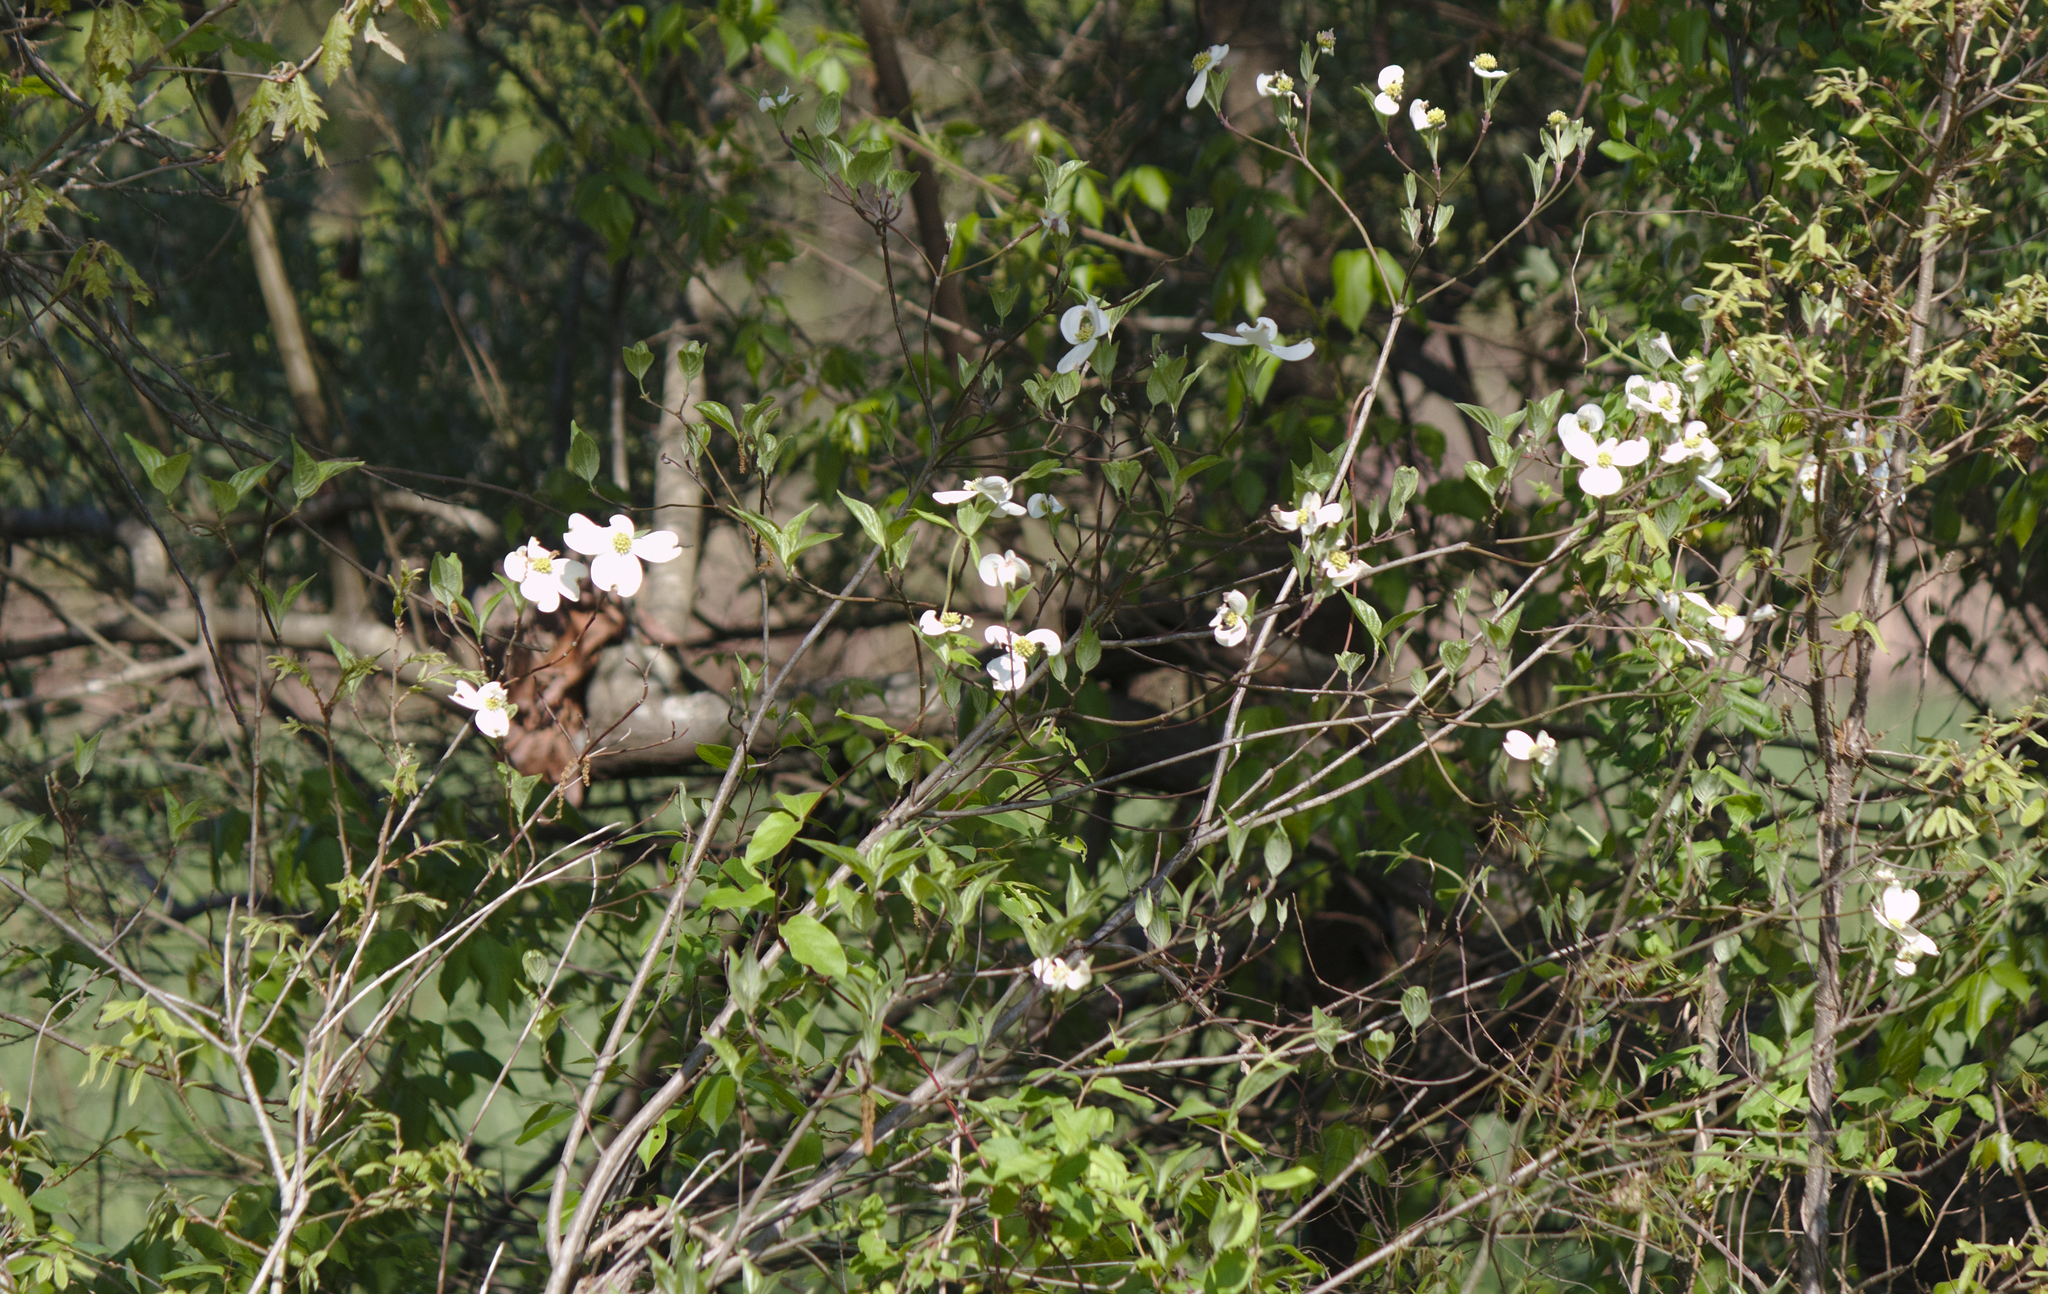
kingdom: Plantae
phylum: Tracheophyta
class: Magnoliopsida
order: Cornales
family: Cornaceae
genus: Cornus
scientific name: Cornus florida
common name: Flowering dogwood
